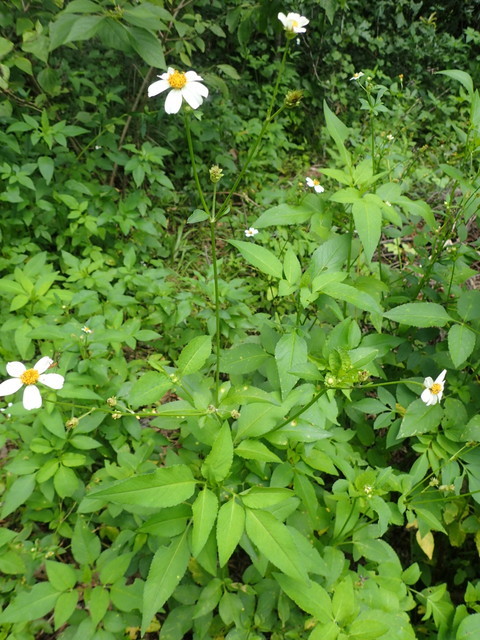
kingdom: Plantae
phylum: Tracheophyta
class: Magnoliopsida
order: Asterales
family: Asteraceae
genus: Bidens
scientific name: Bidens alba
